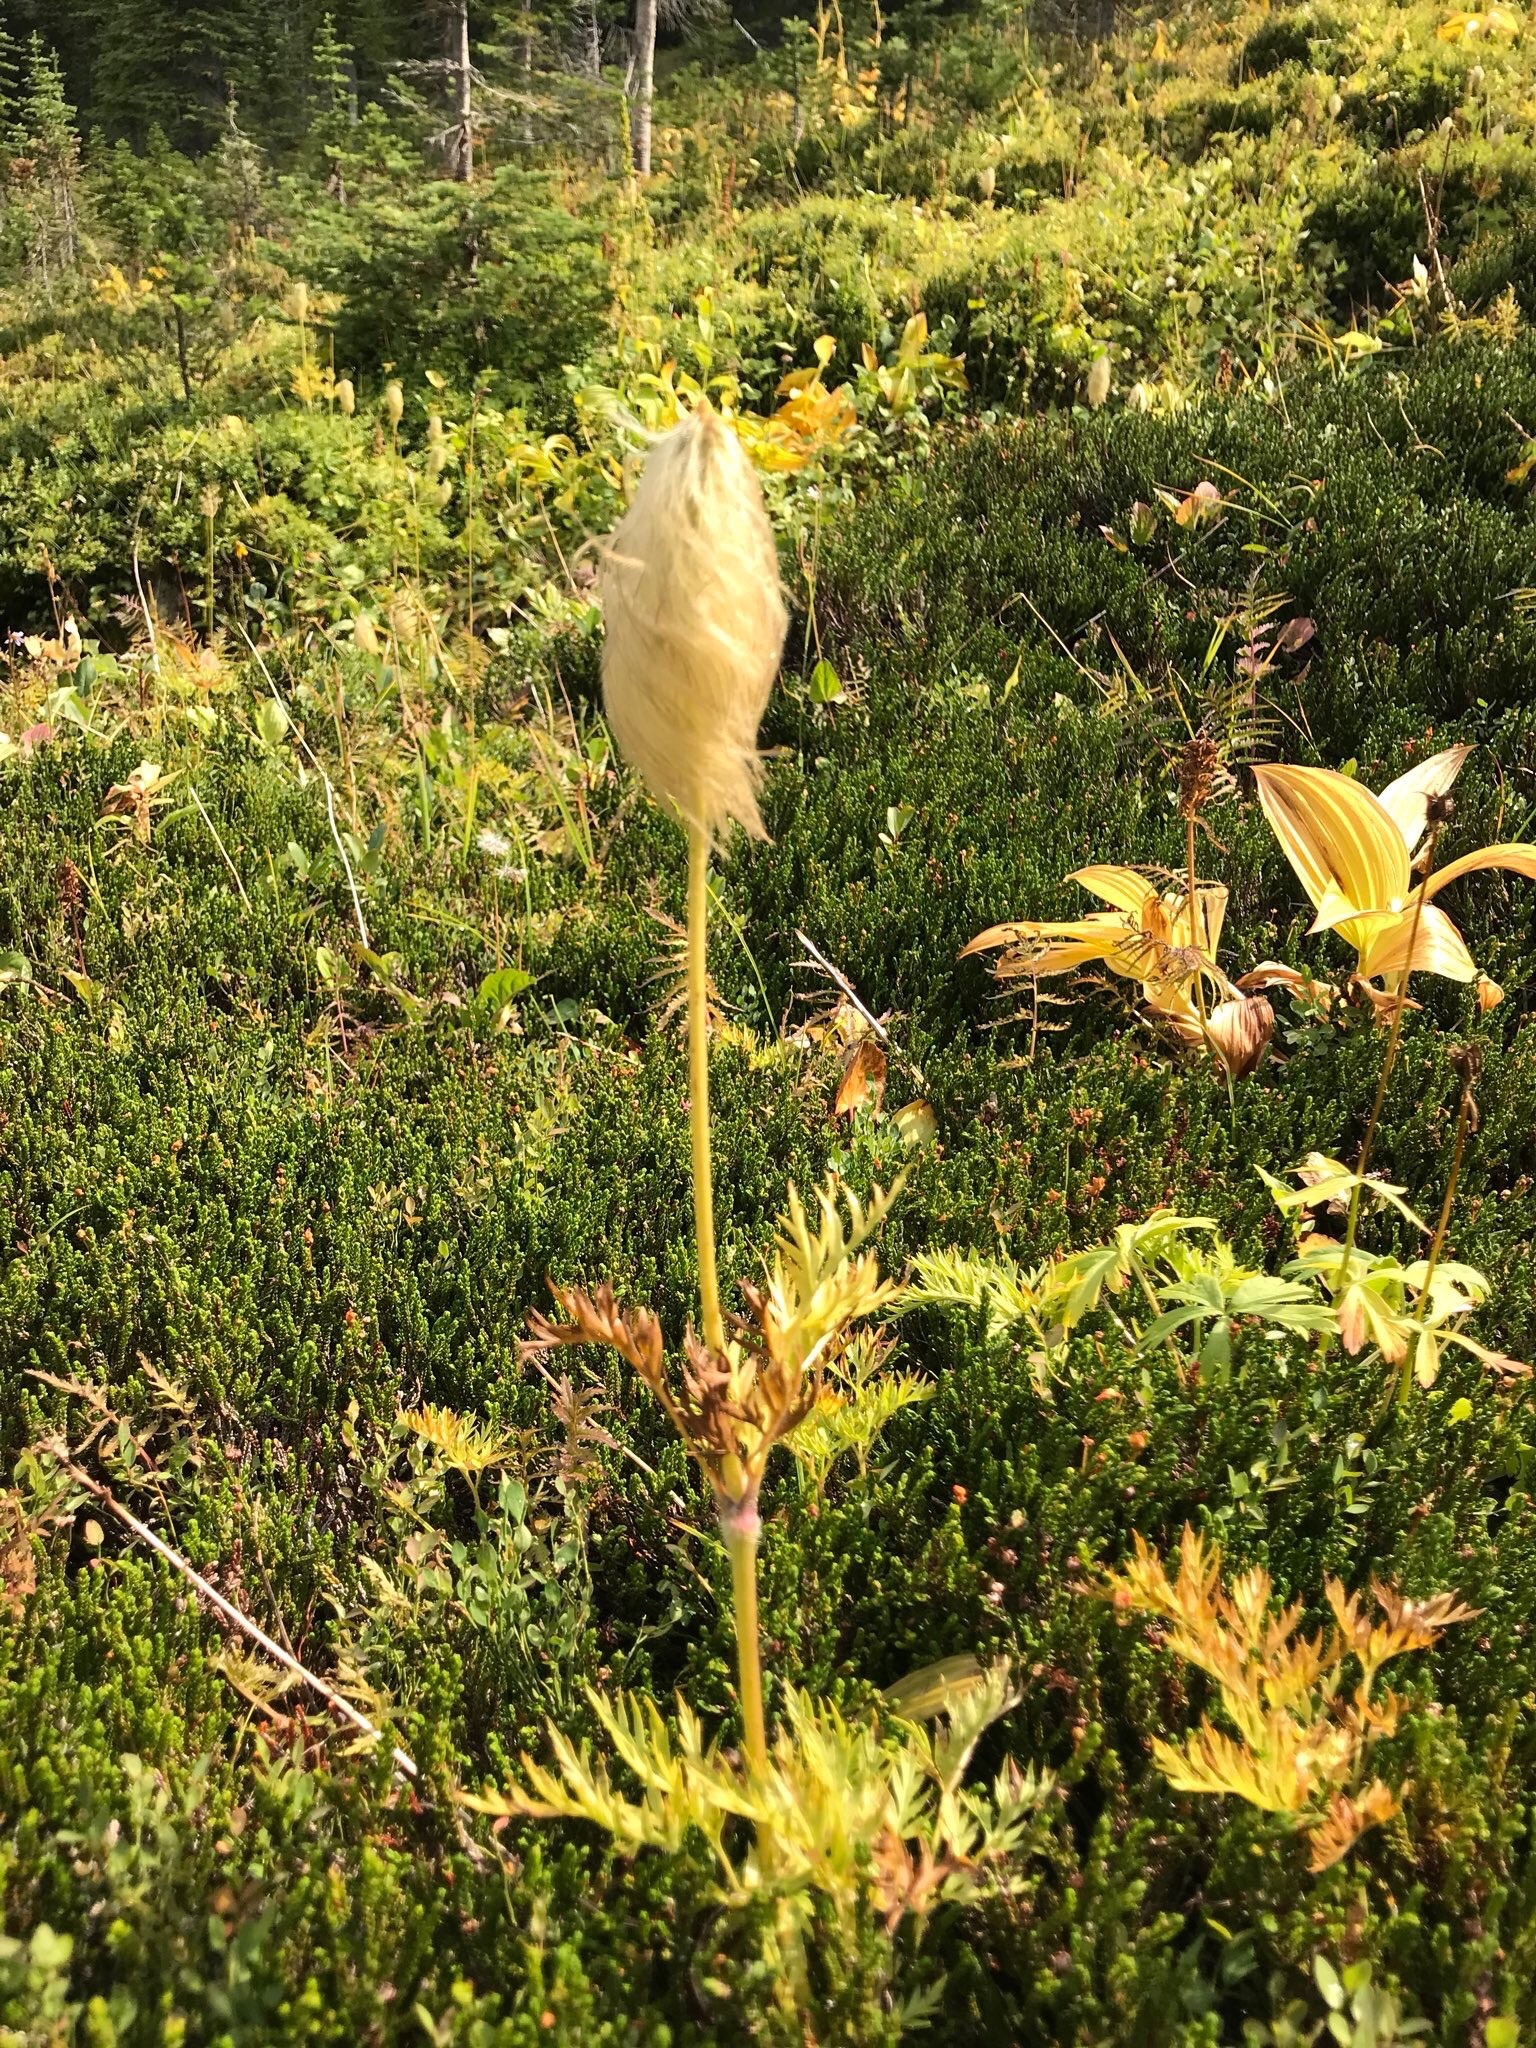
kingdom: Plantae
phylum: Tracheophyta
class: Magnoliopsida
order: Ranunculales
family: Ranunculaceae
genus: Pulsatilla
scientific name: Pulsatilla occidentalis
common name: Mountain pasqueflower
